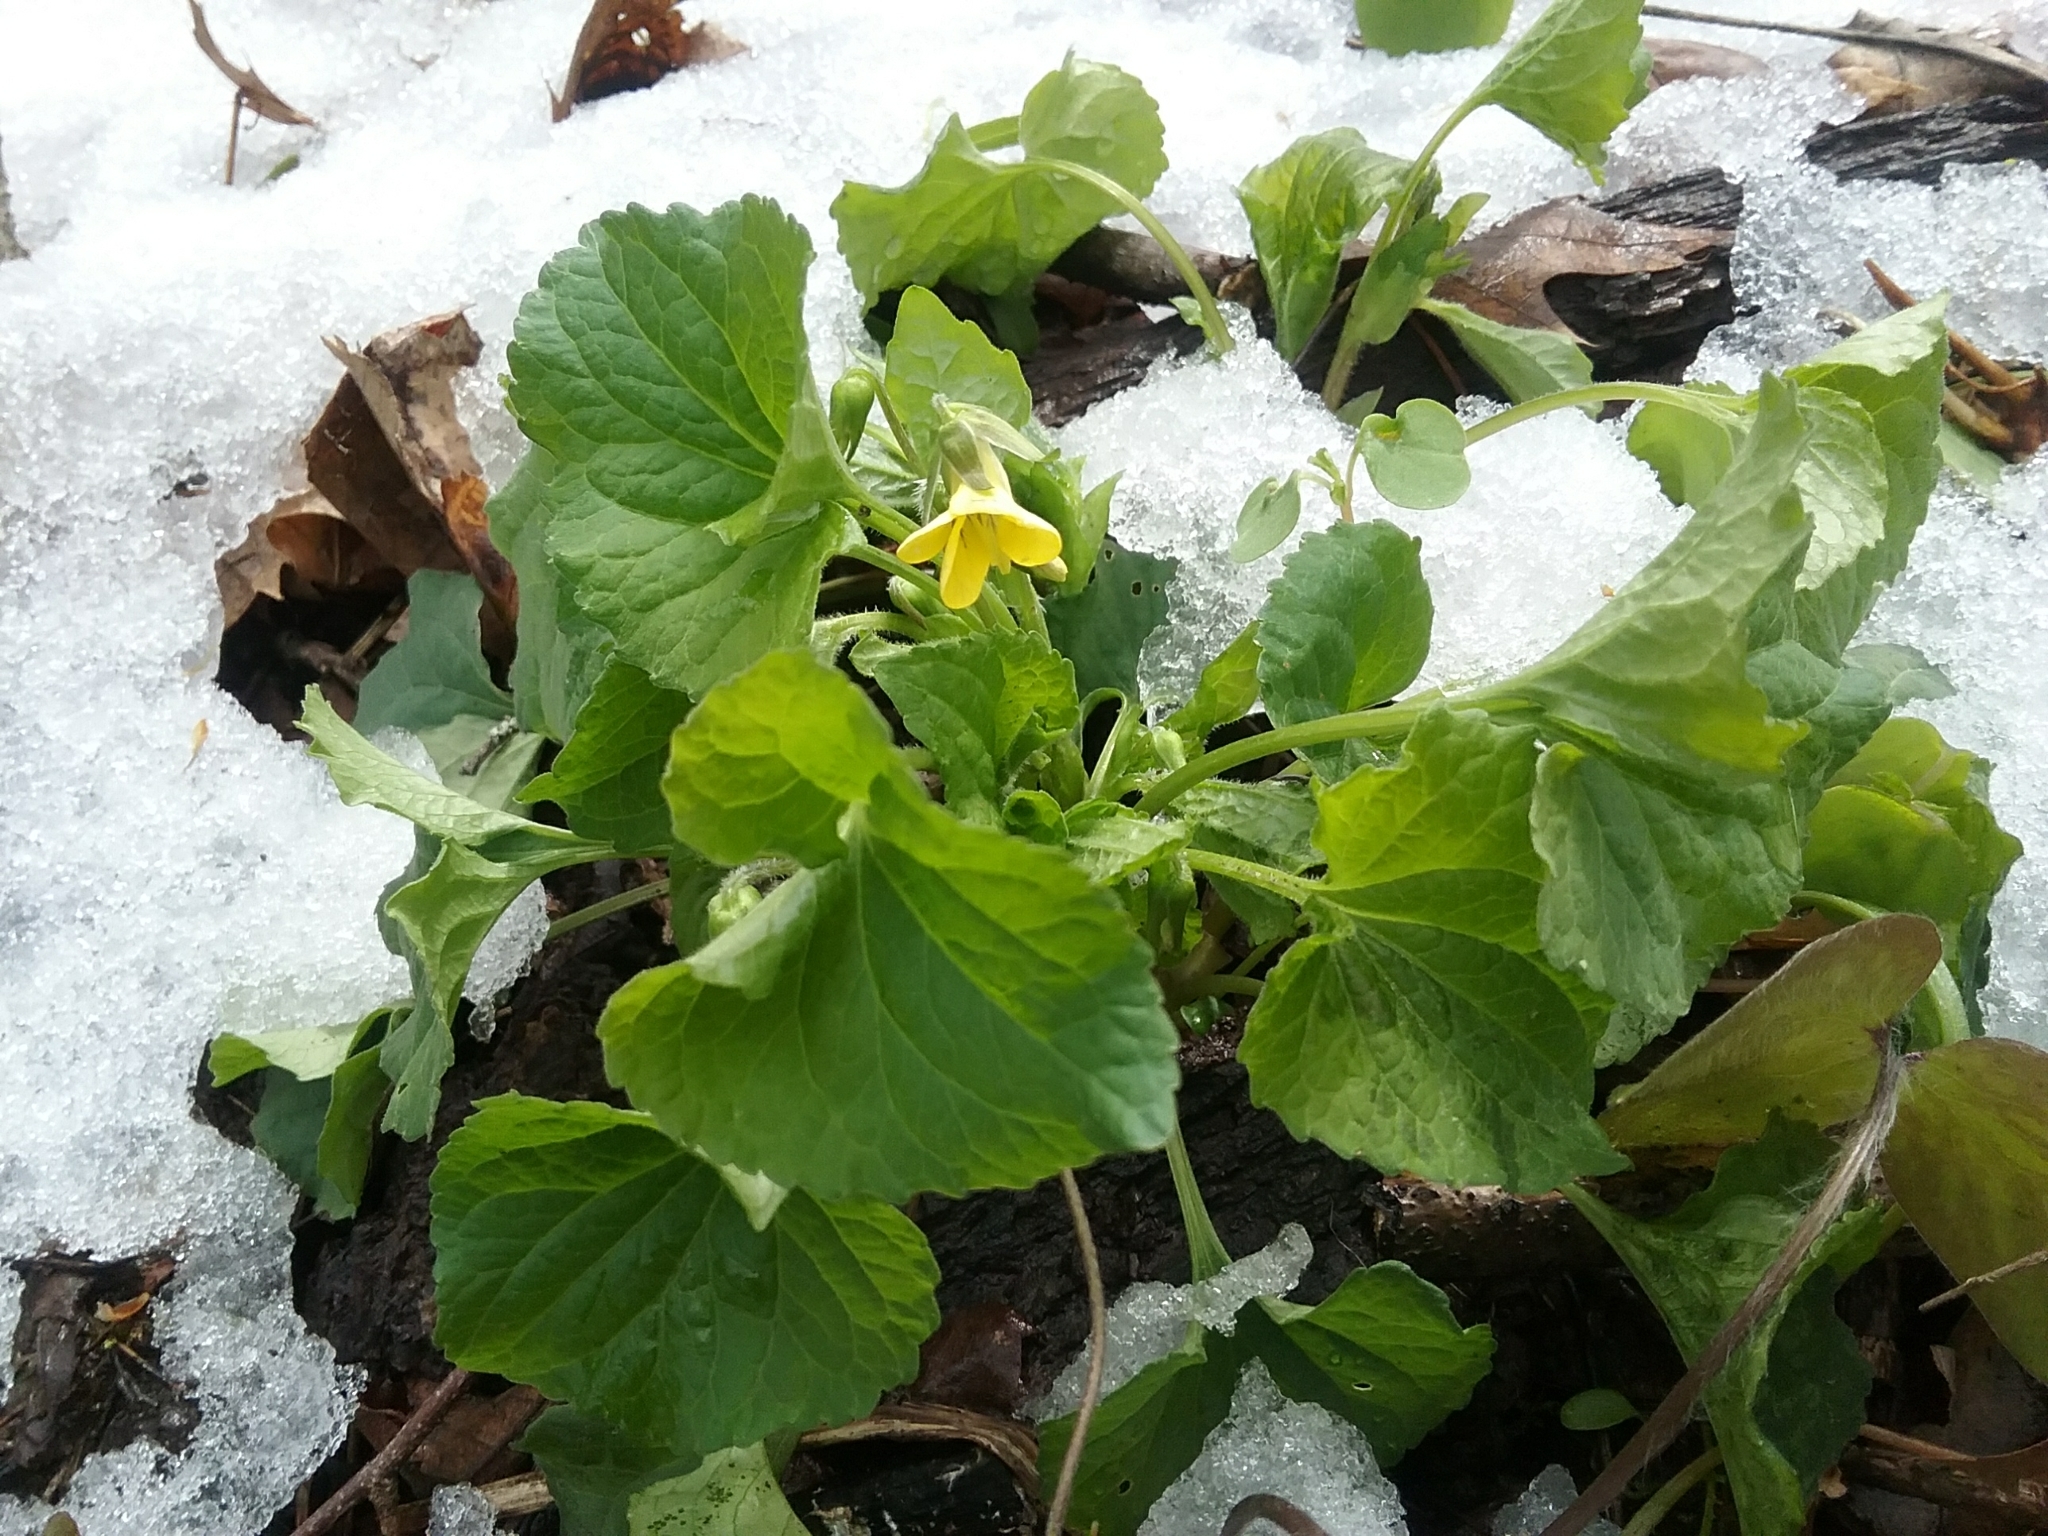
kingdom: Plantae
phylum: Tracheophyta
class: Magnoliopsida
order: Malpighiales
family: Violaceae
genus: Viola
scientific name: Viola eriocarpa
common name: Smooth yellow violet
